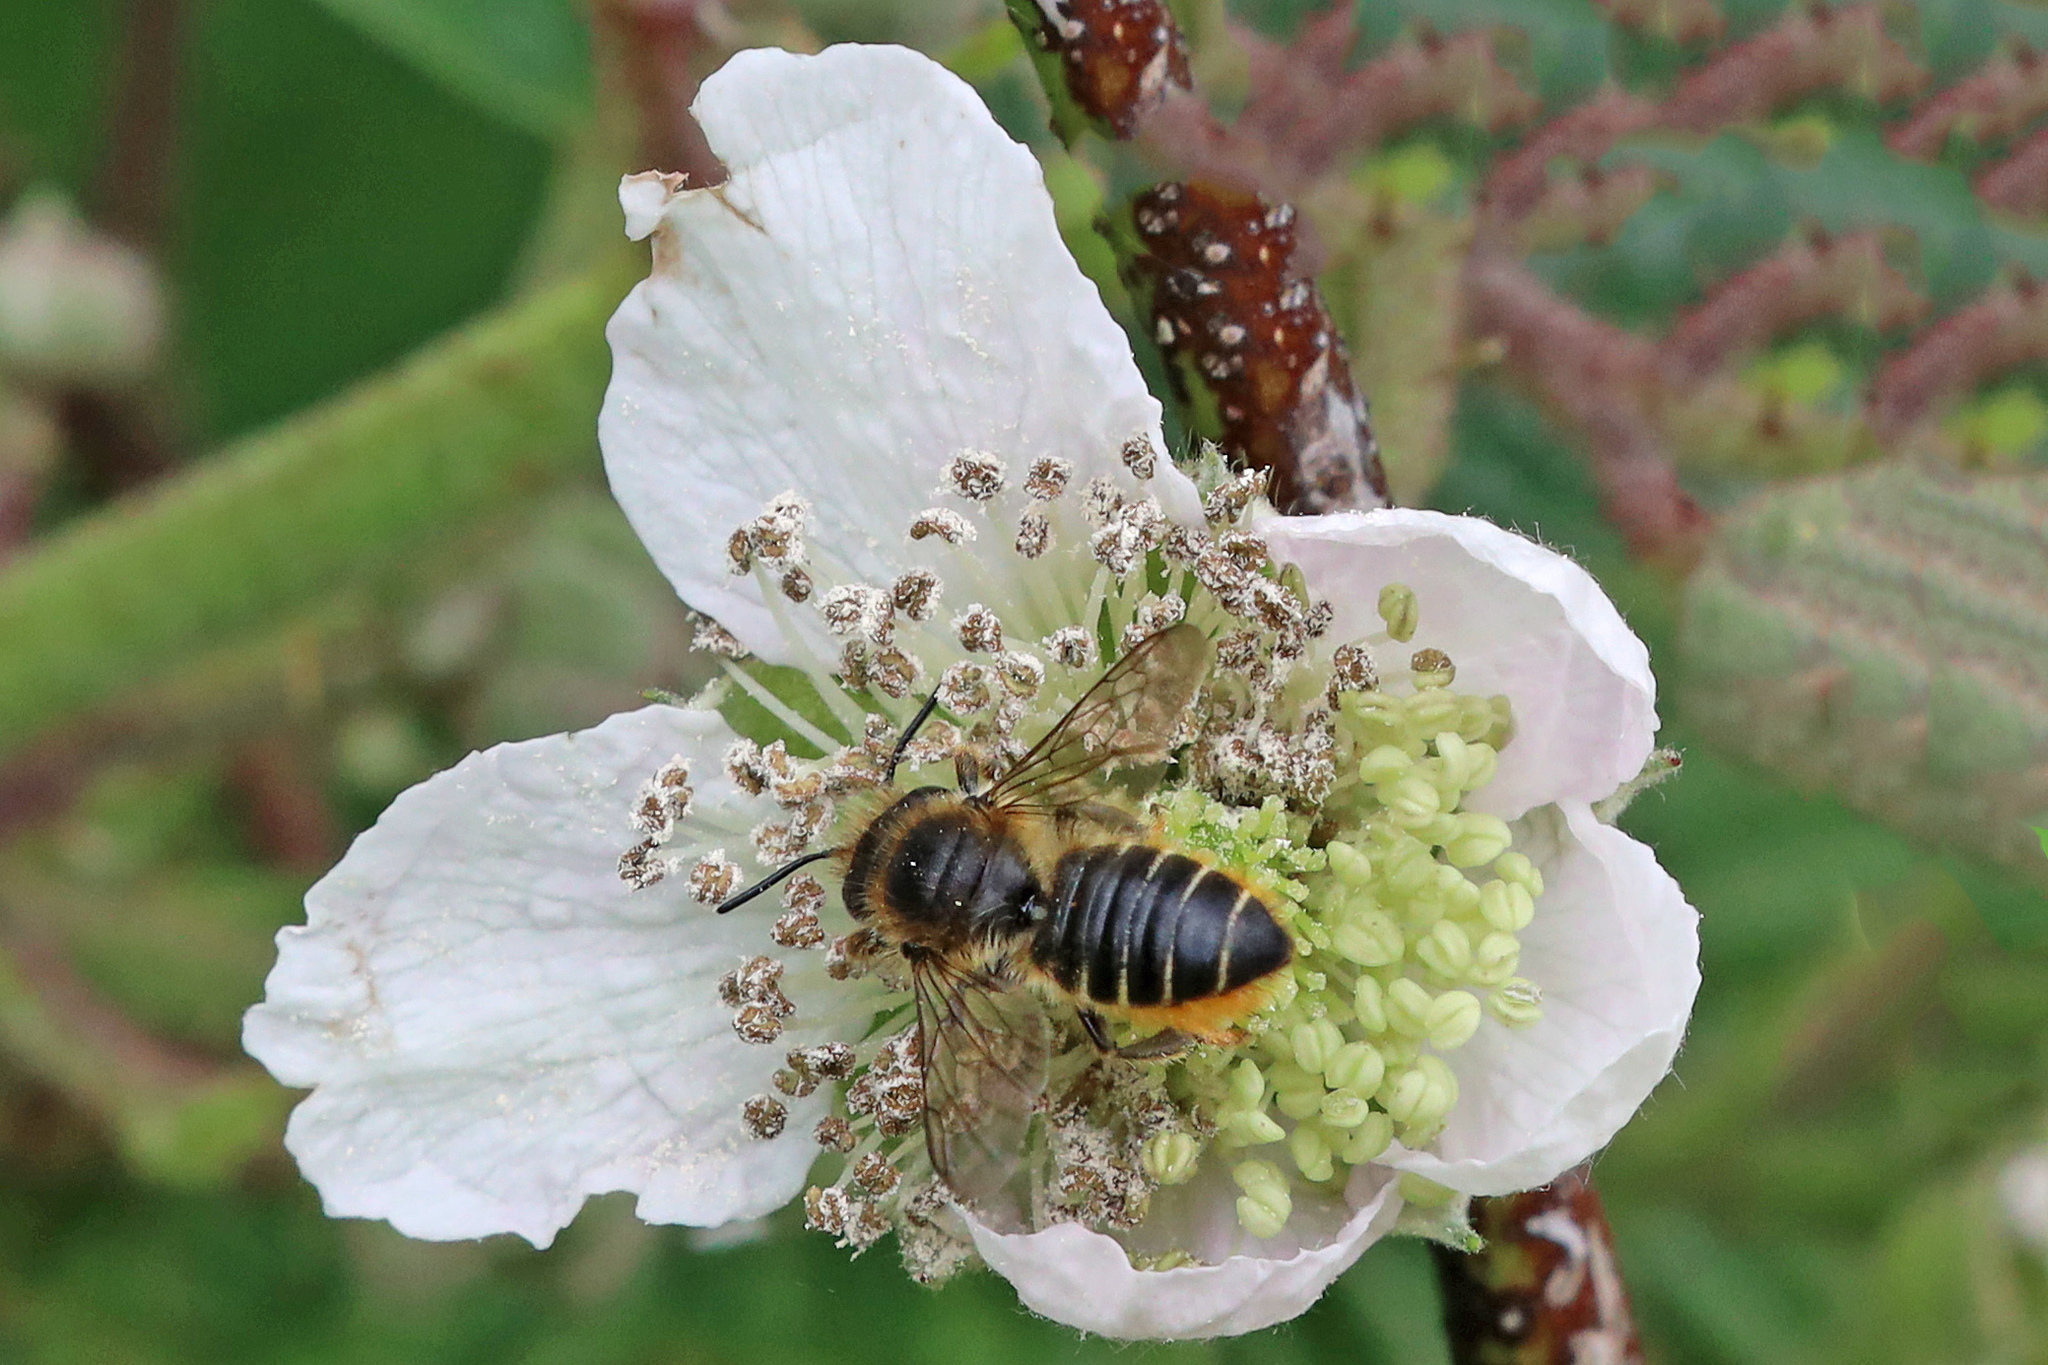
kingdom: Animalia
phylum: Arthropoda
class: Insecta
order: Hymenoptera
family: Megachilidae
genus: Megachile
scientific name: Megachile centuncularis
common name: Patchwork leafcutter bee
